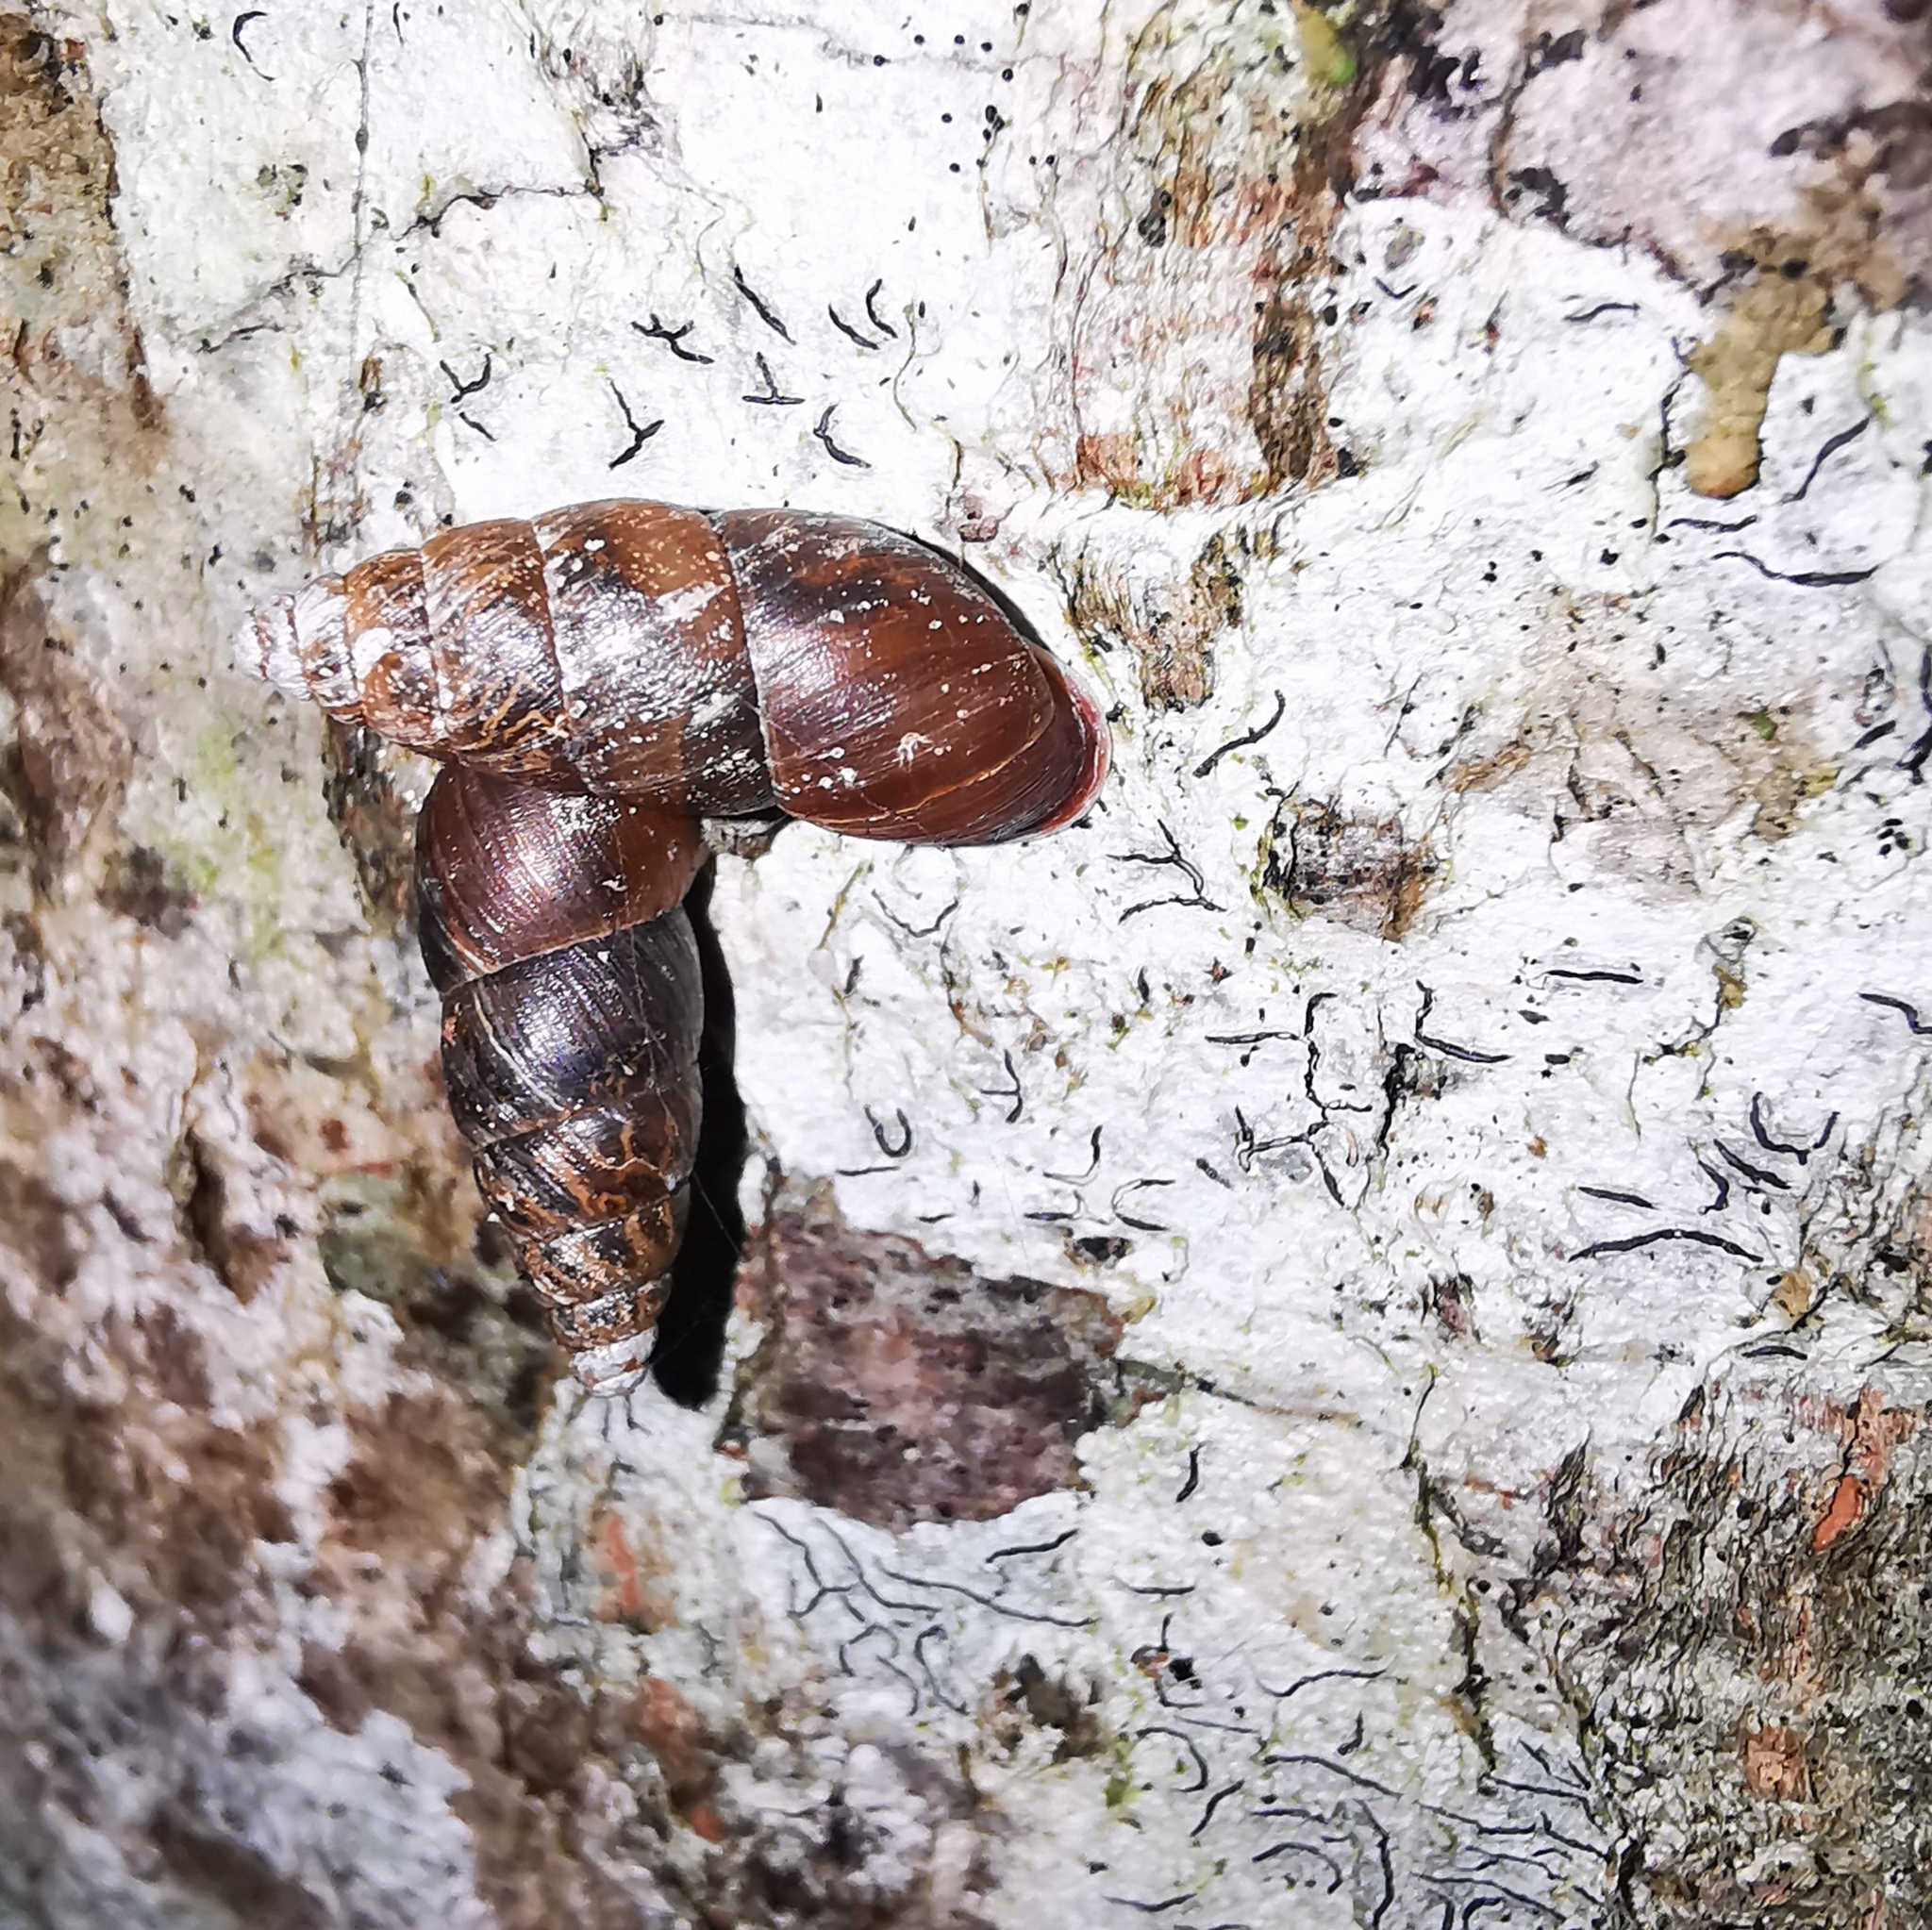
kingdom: Animalia
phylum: Mollusca
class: Gastropoda
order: Stylommatophora
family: Enidae
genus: Ena
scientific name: Ena montana
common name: Mountain bulin
